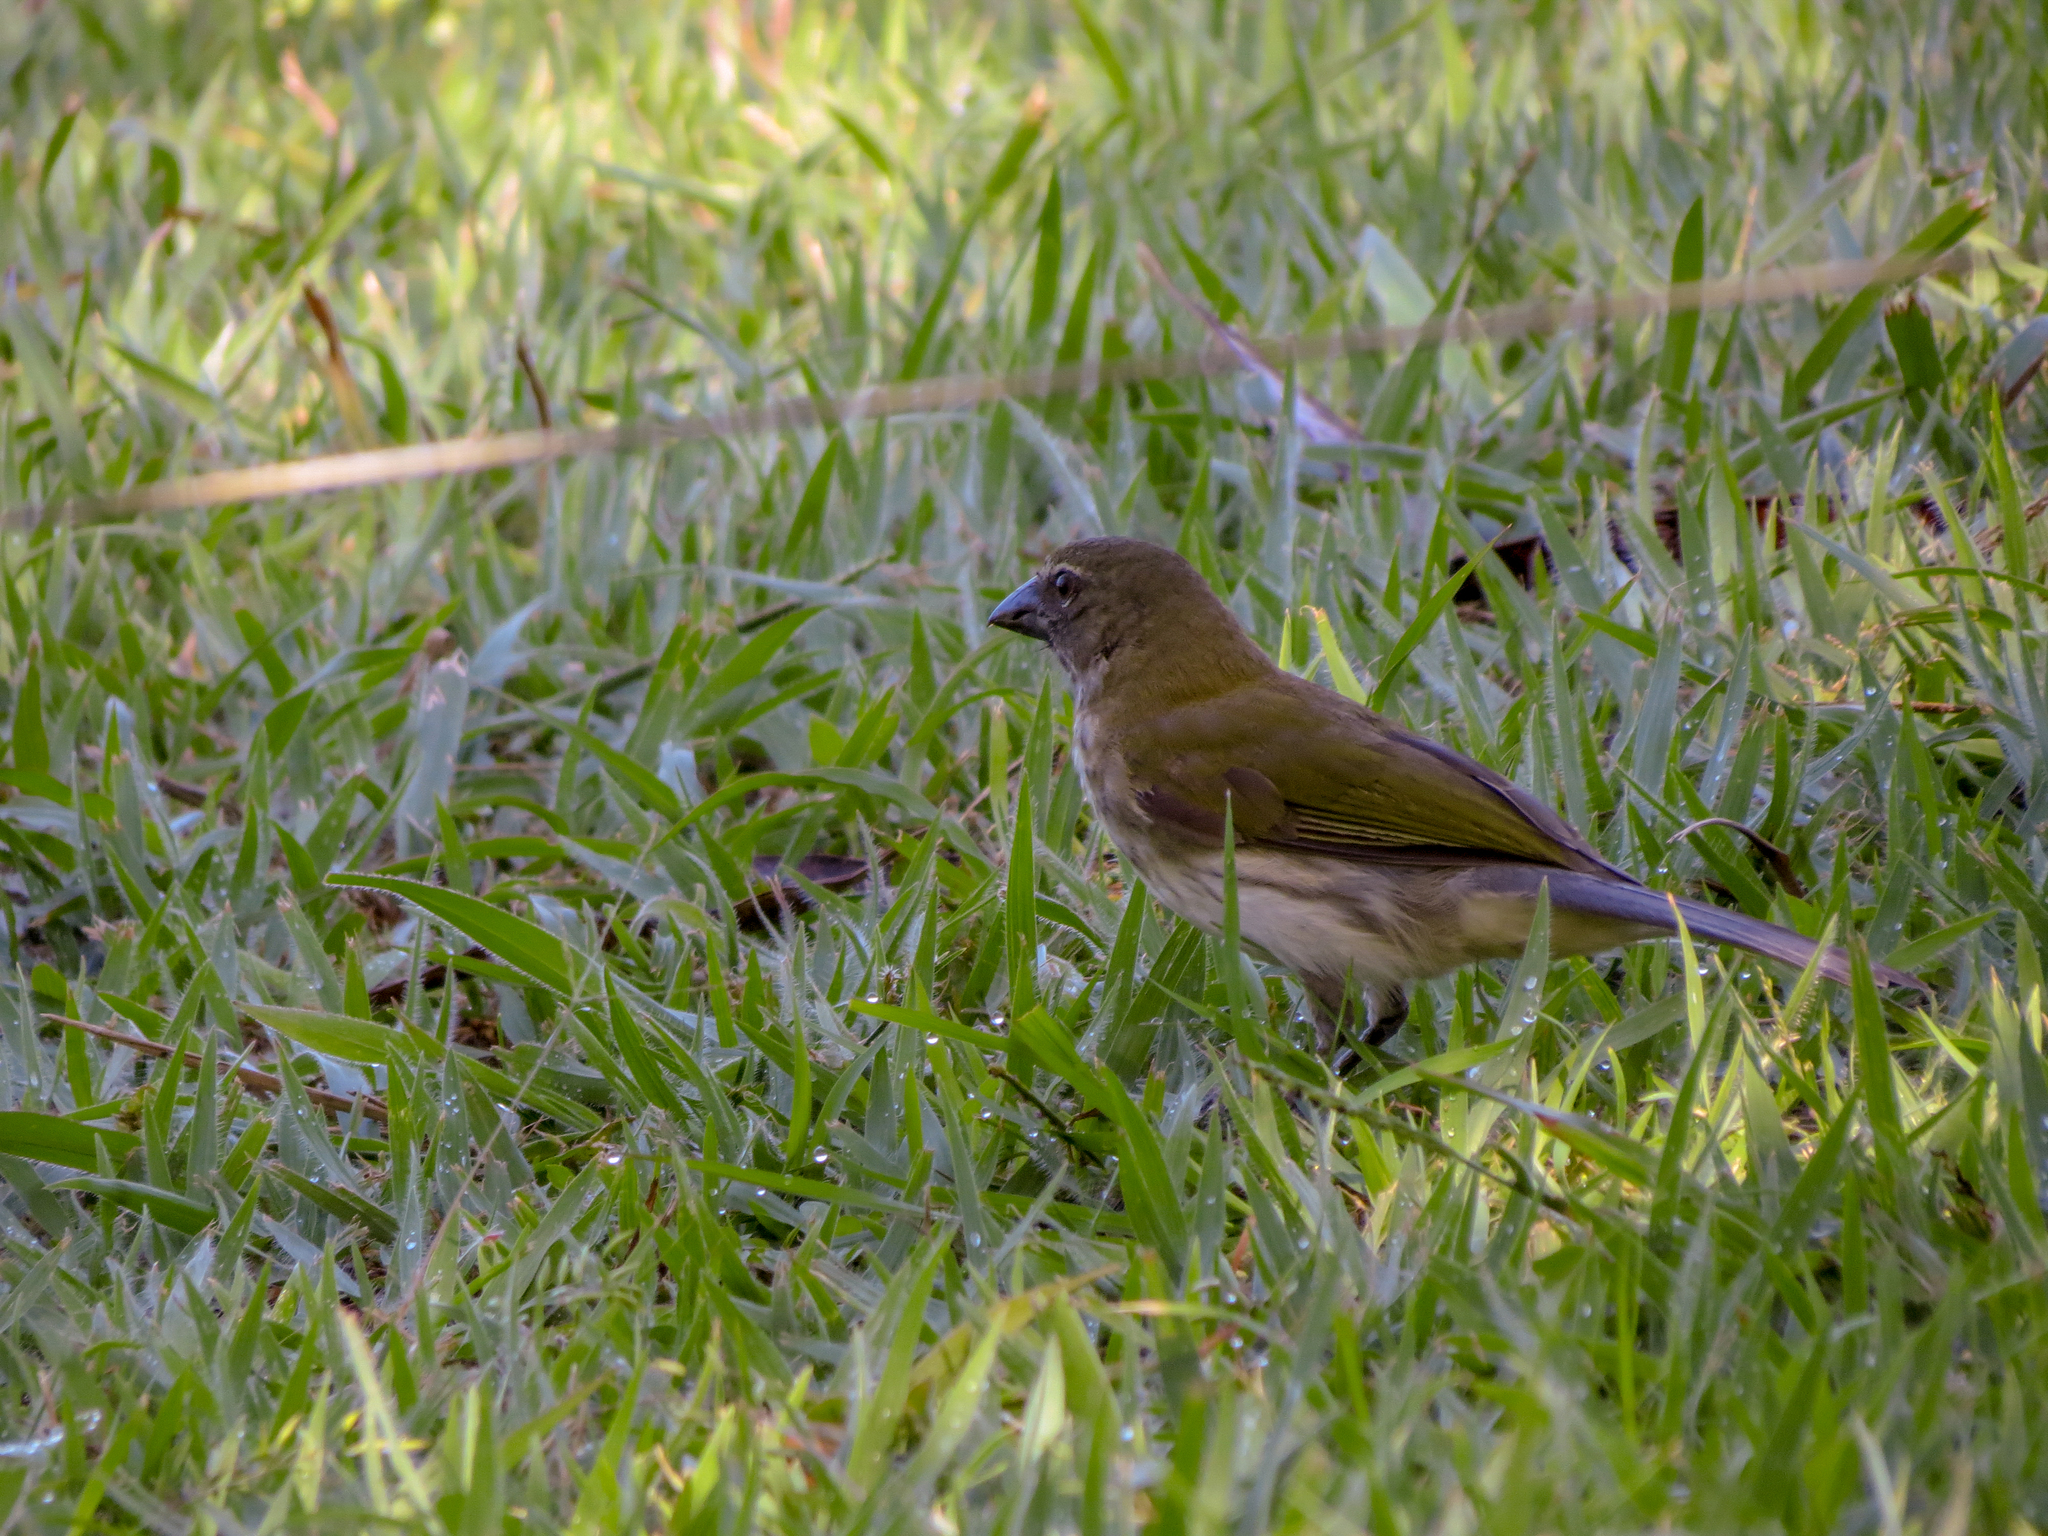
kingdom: Animalia
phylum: Chordata
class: Aves
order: Passeriformes
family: Thraupidae
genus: Saltator
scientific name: Saltator striatipectus
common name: Streaked saltator
